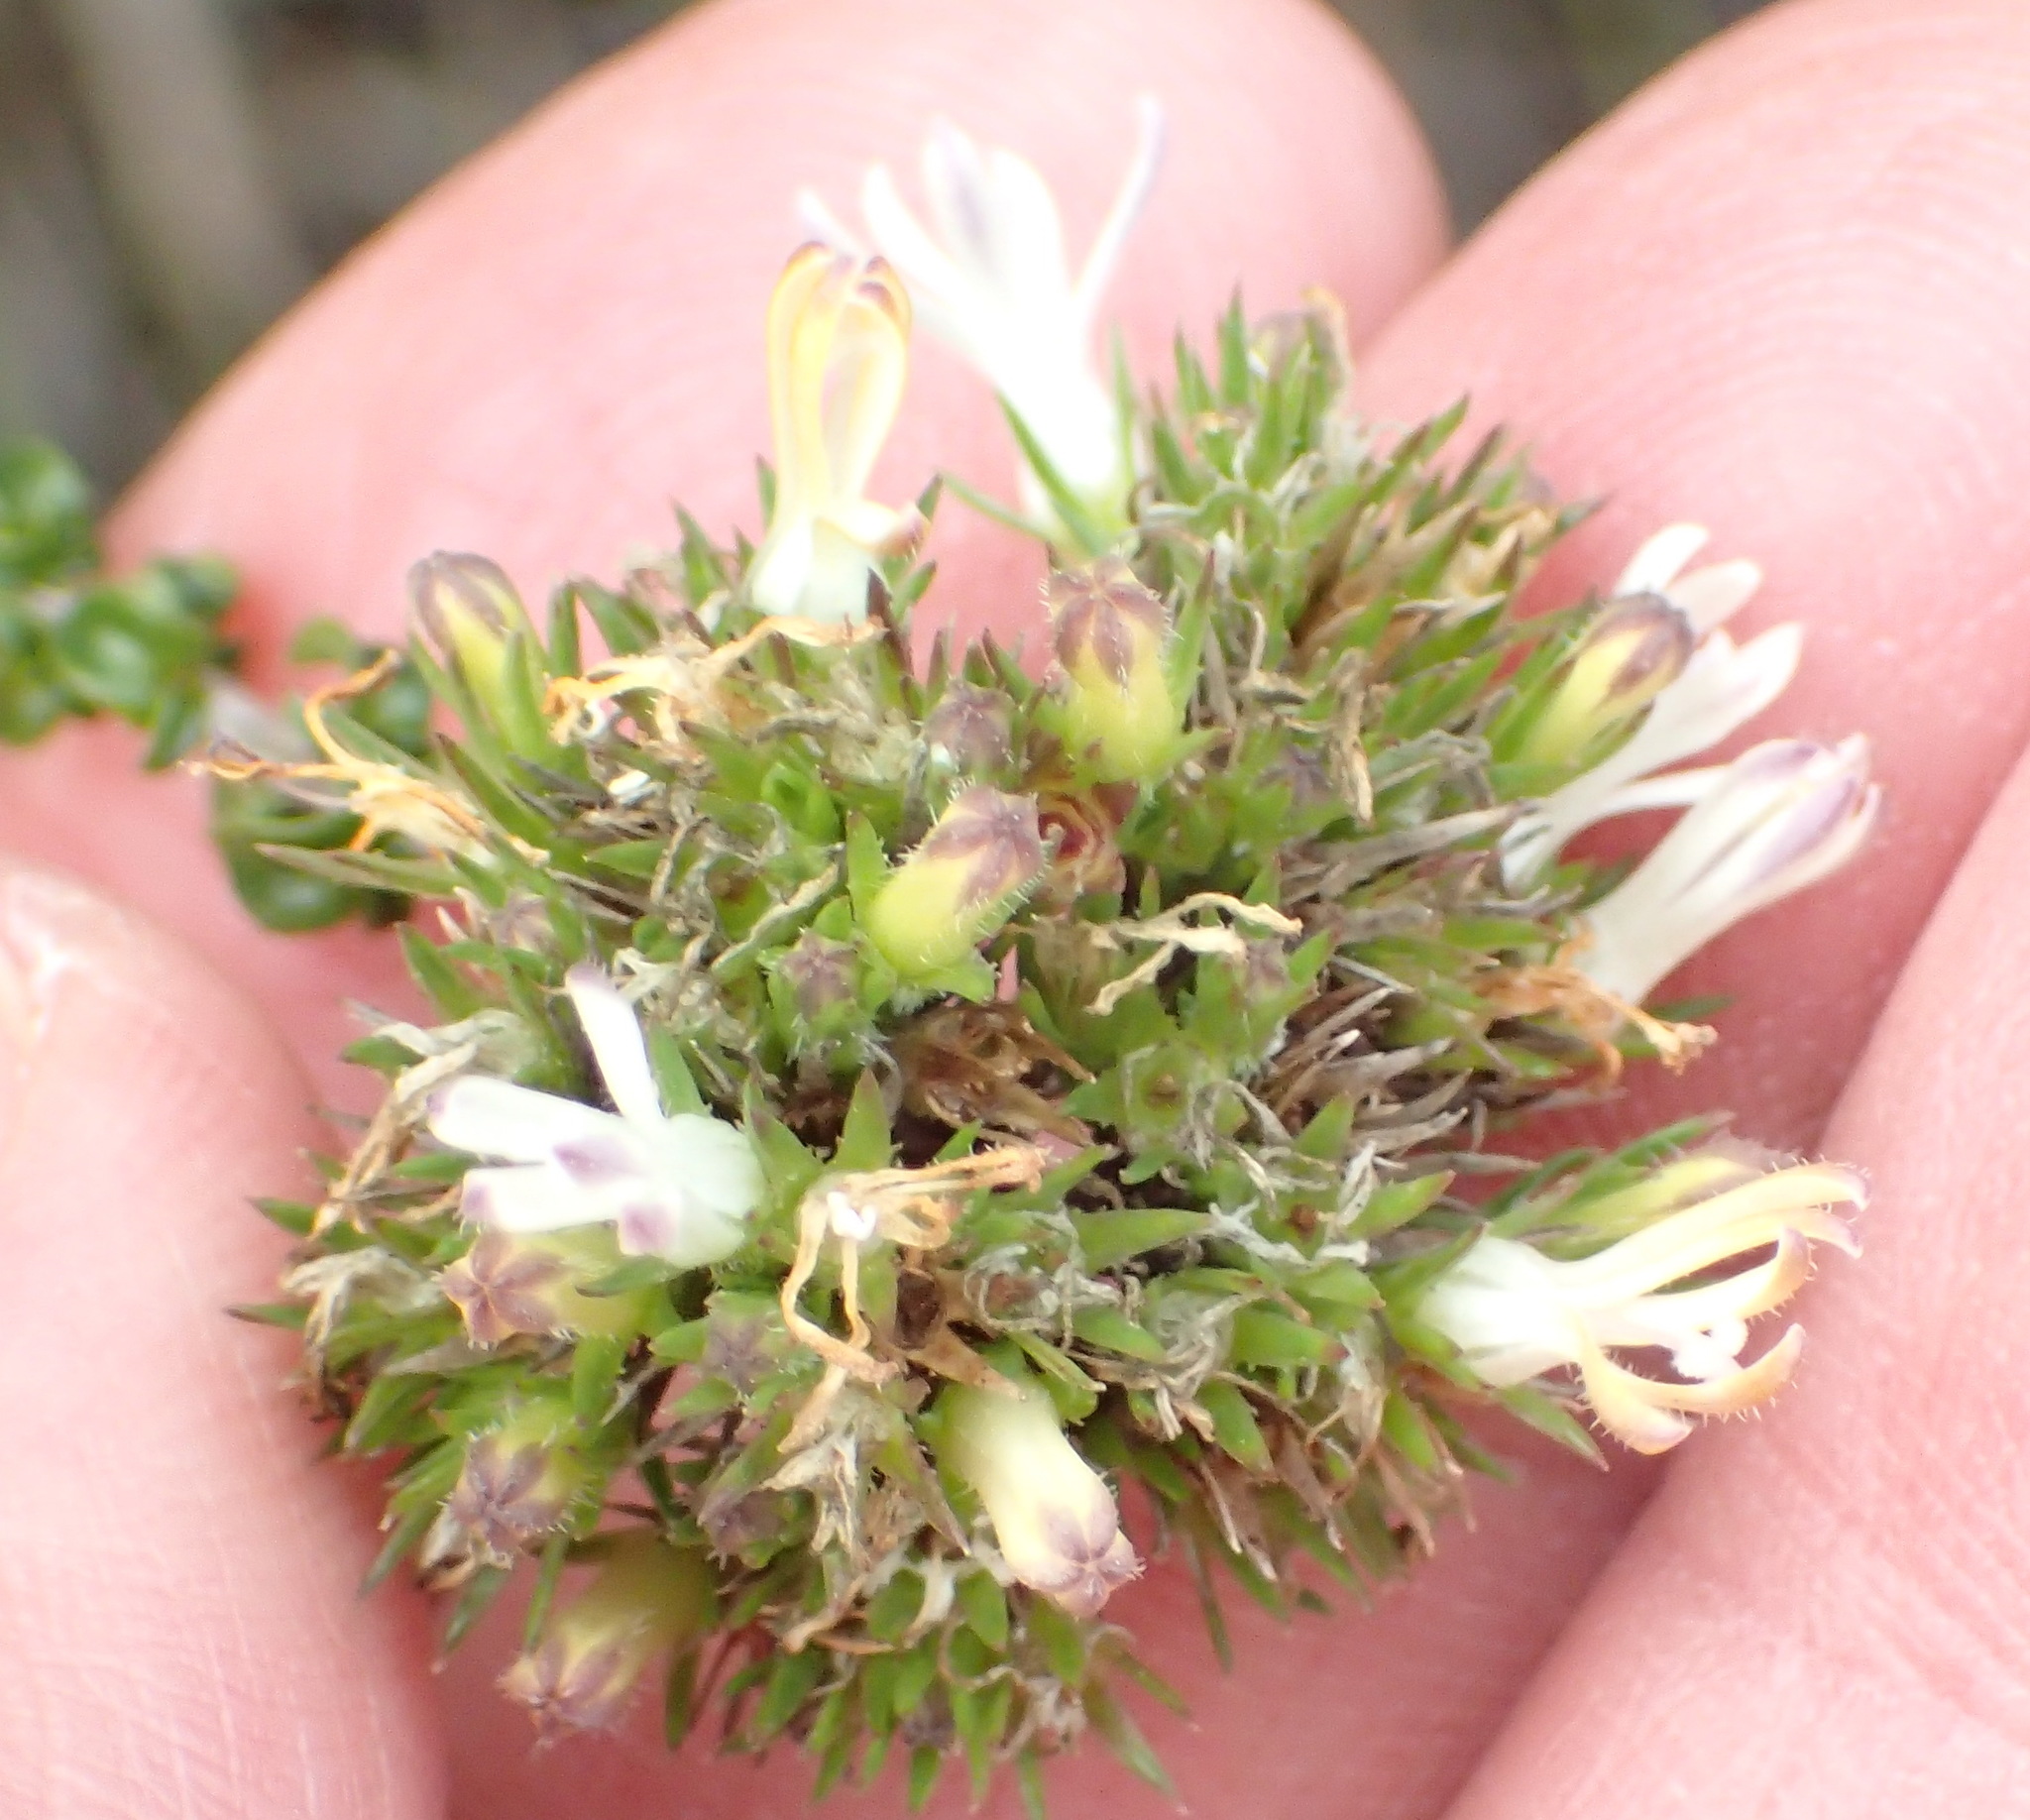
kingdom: Plantae
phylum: Tracheophyta
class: Magnoliopsida
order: Asterales
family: Campanulaceae
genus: Wahlenbergia
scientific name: Wahlenbergia desmantha
